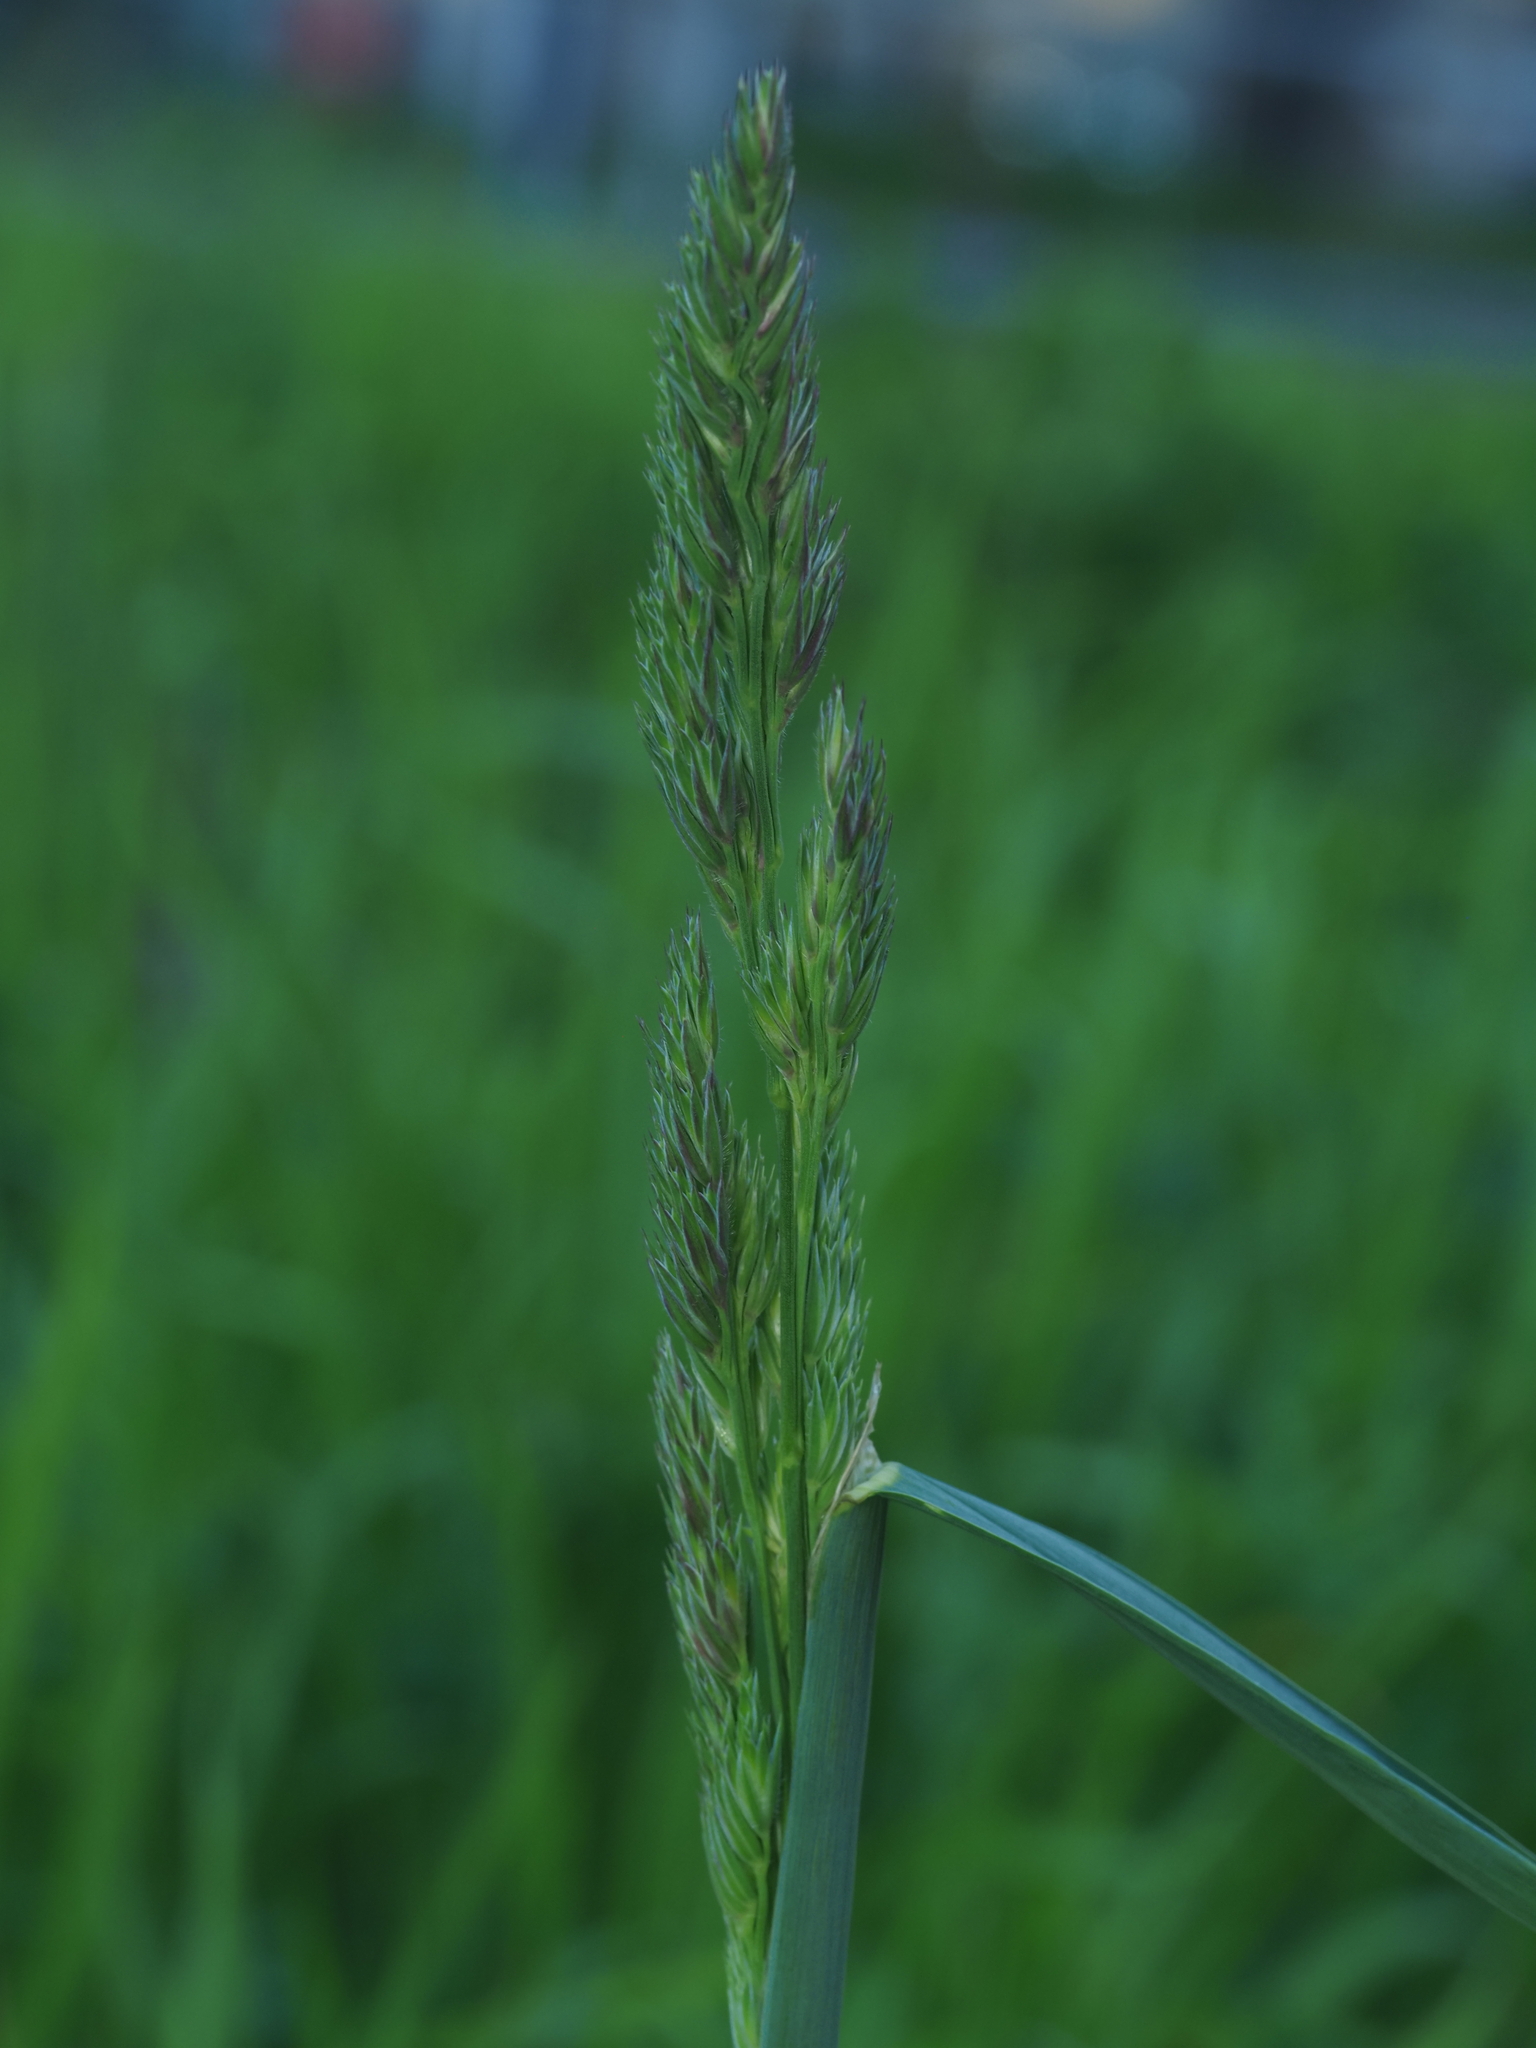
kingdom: Plantae
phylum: Tracheophyta
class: Liliopsida
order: Poales
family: Poaceae
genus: Dactylis
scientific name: Dactylis glomerata
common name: Orchardgrass
